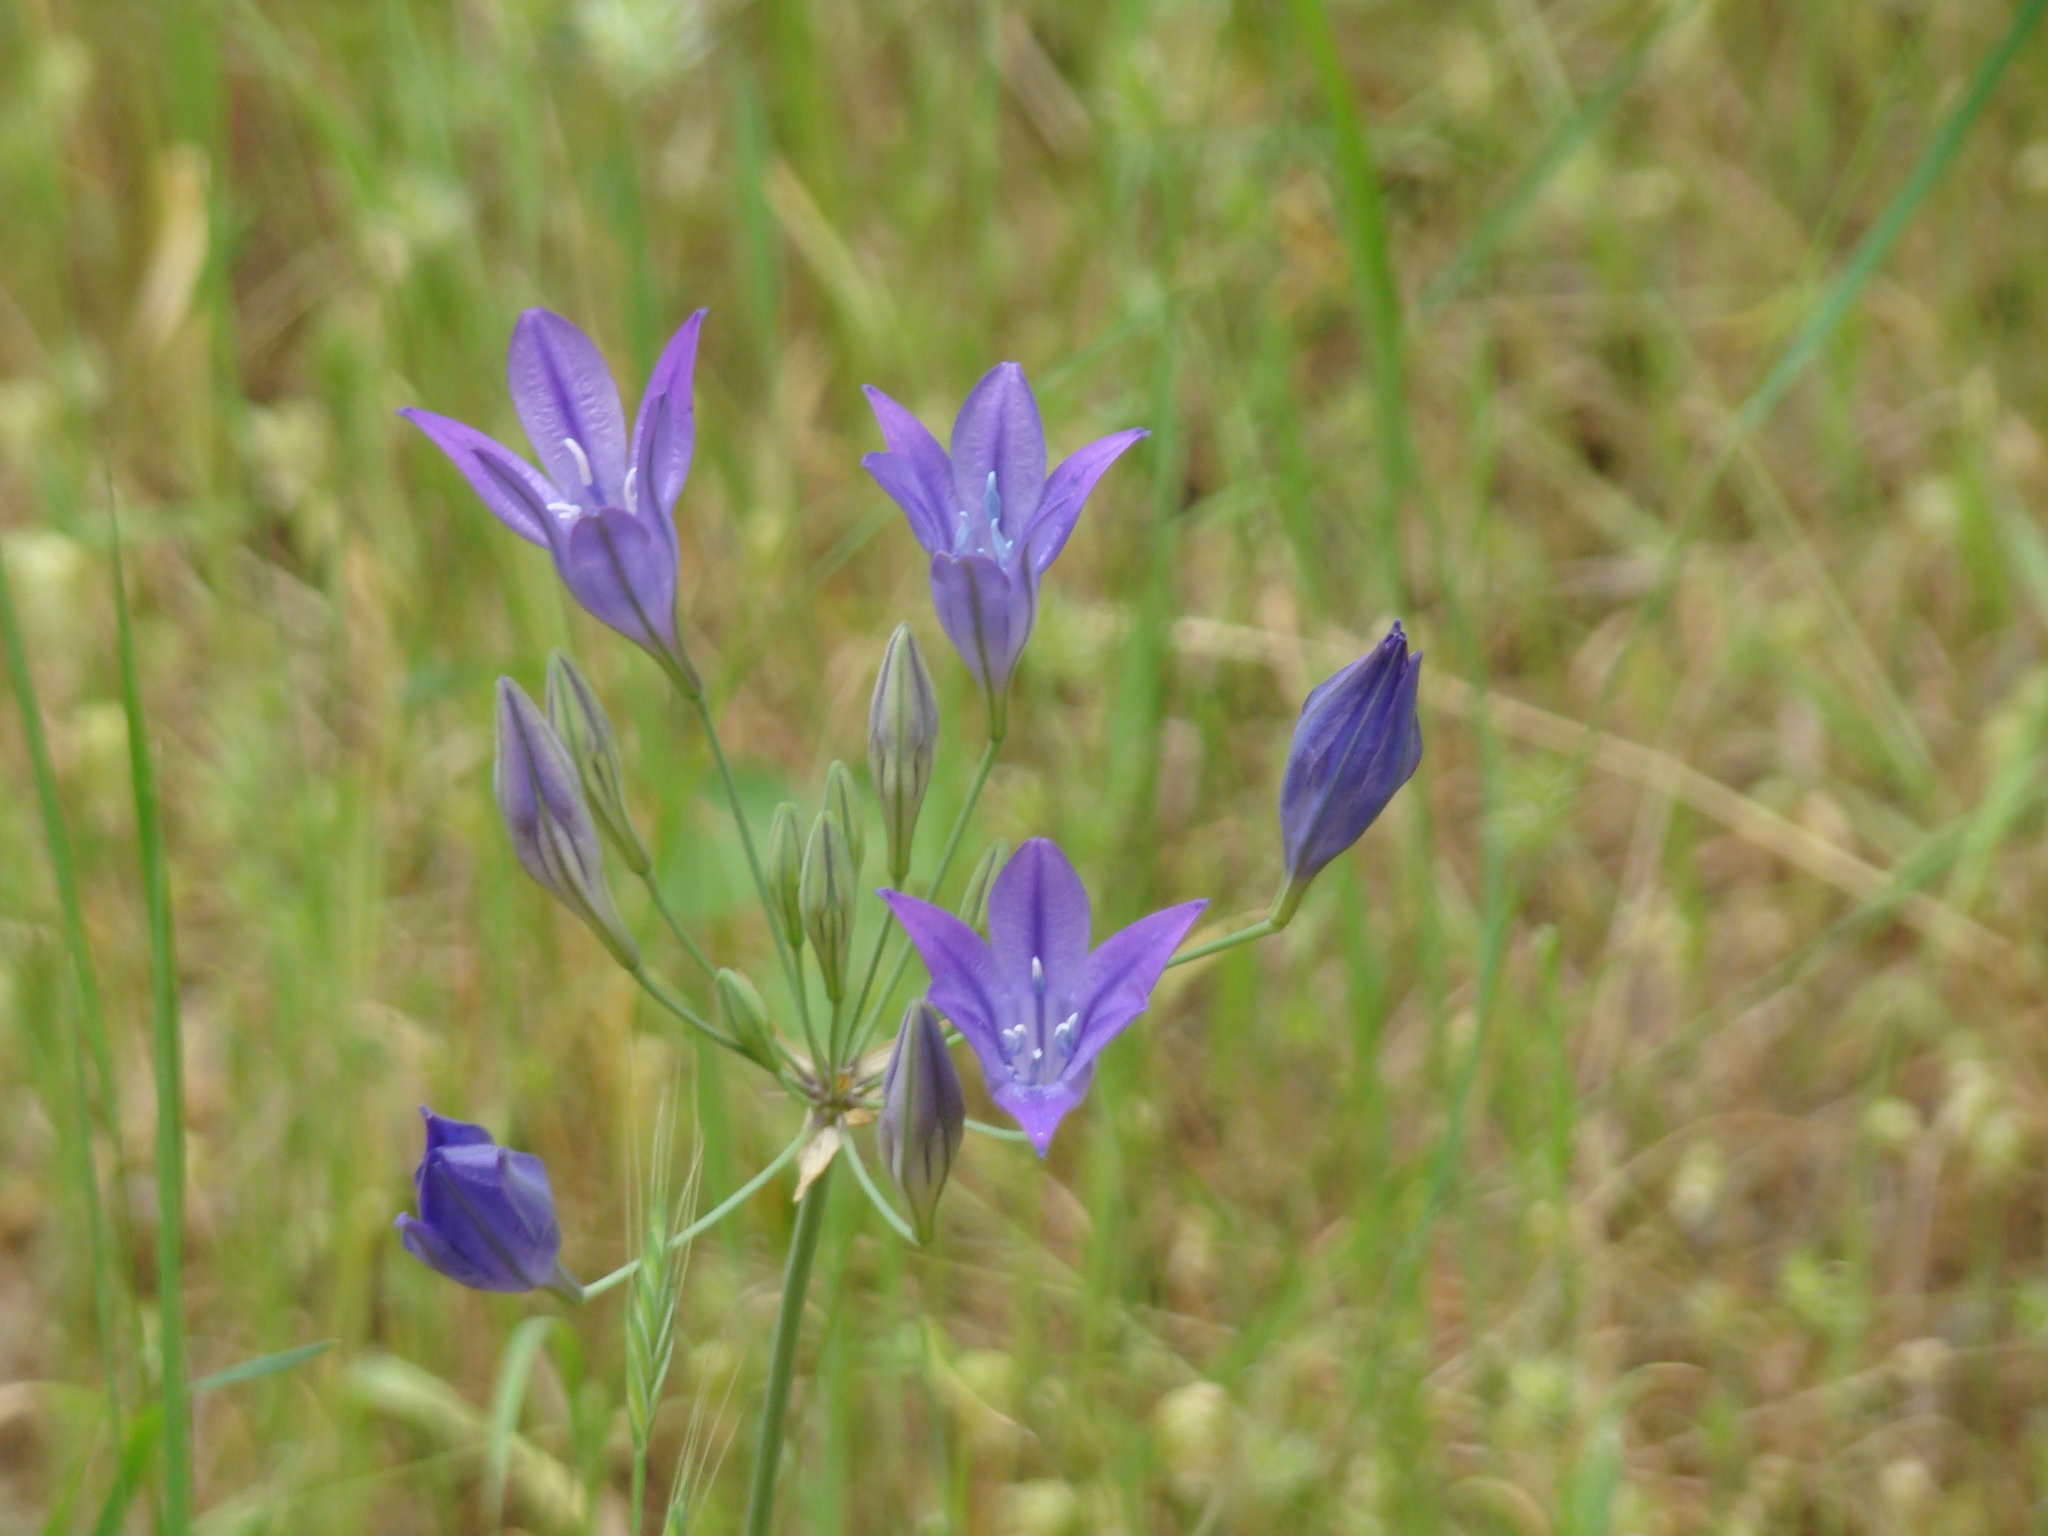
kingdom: Plantae
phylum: Tracheophyta
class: Liliopsida
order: Asparagales
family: Asparagaceae
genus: Triteleia
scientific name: Triteleia laxa
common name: Triplet-lily
